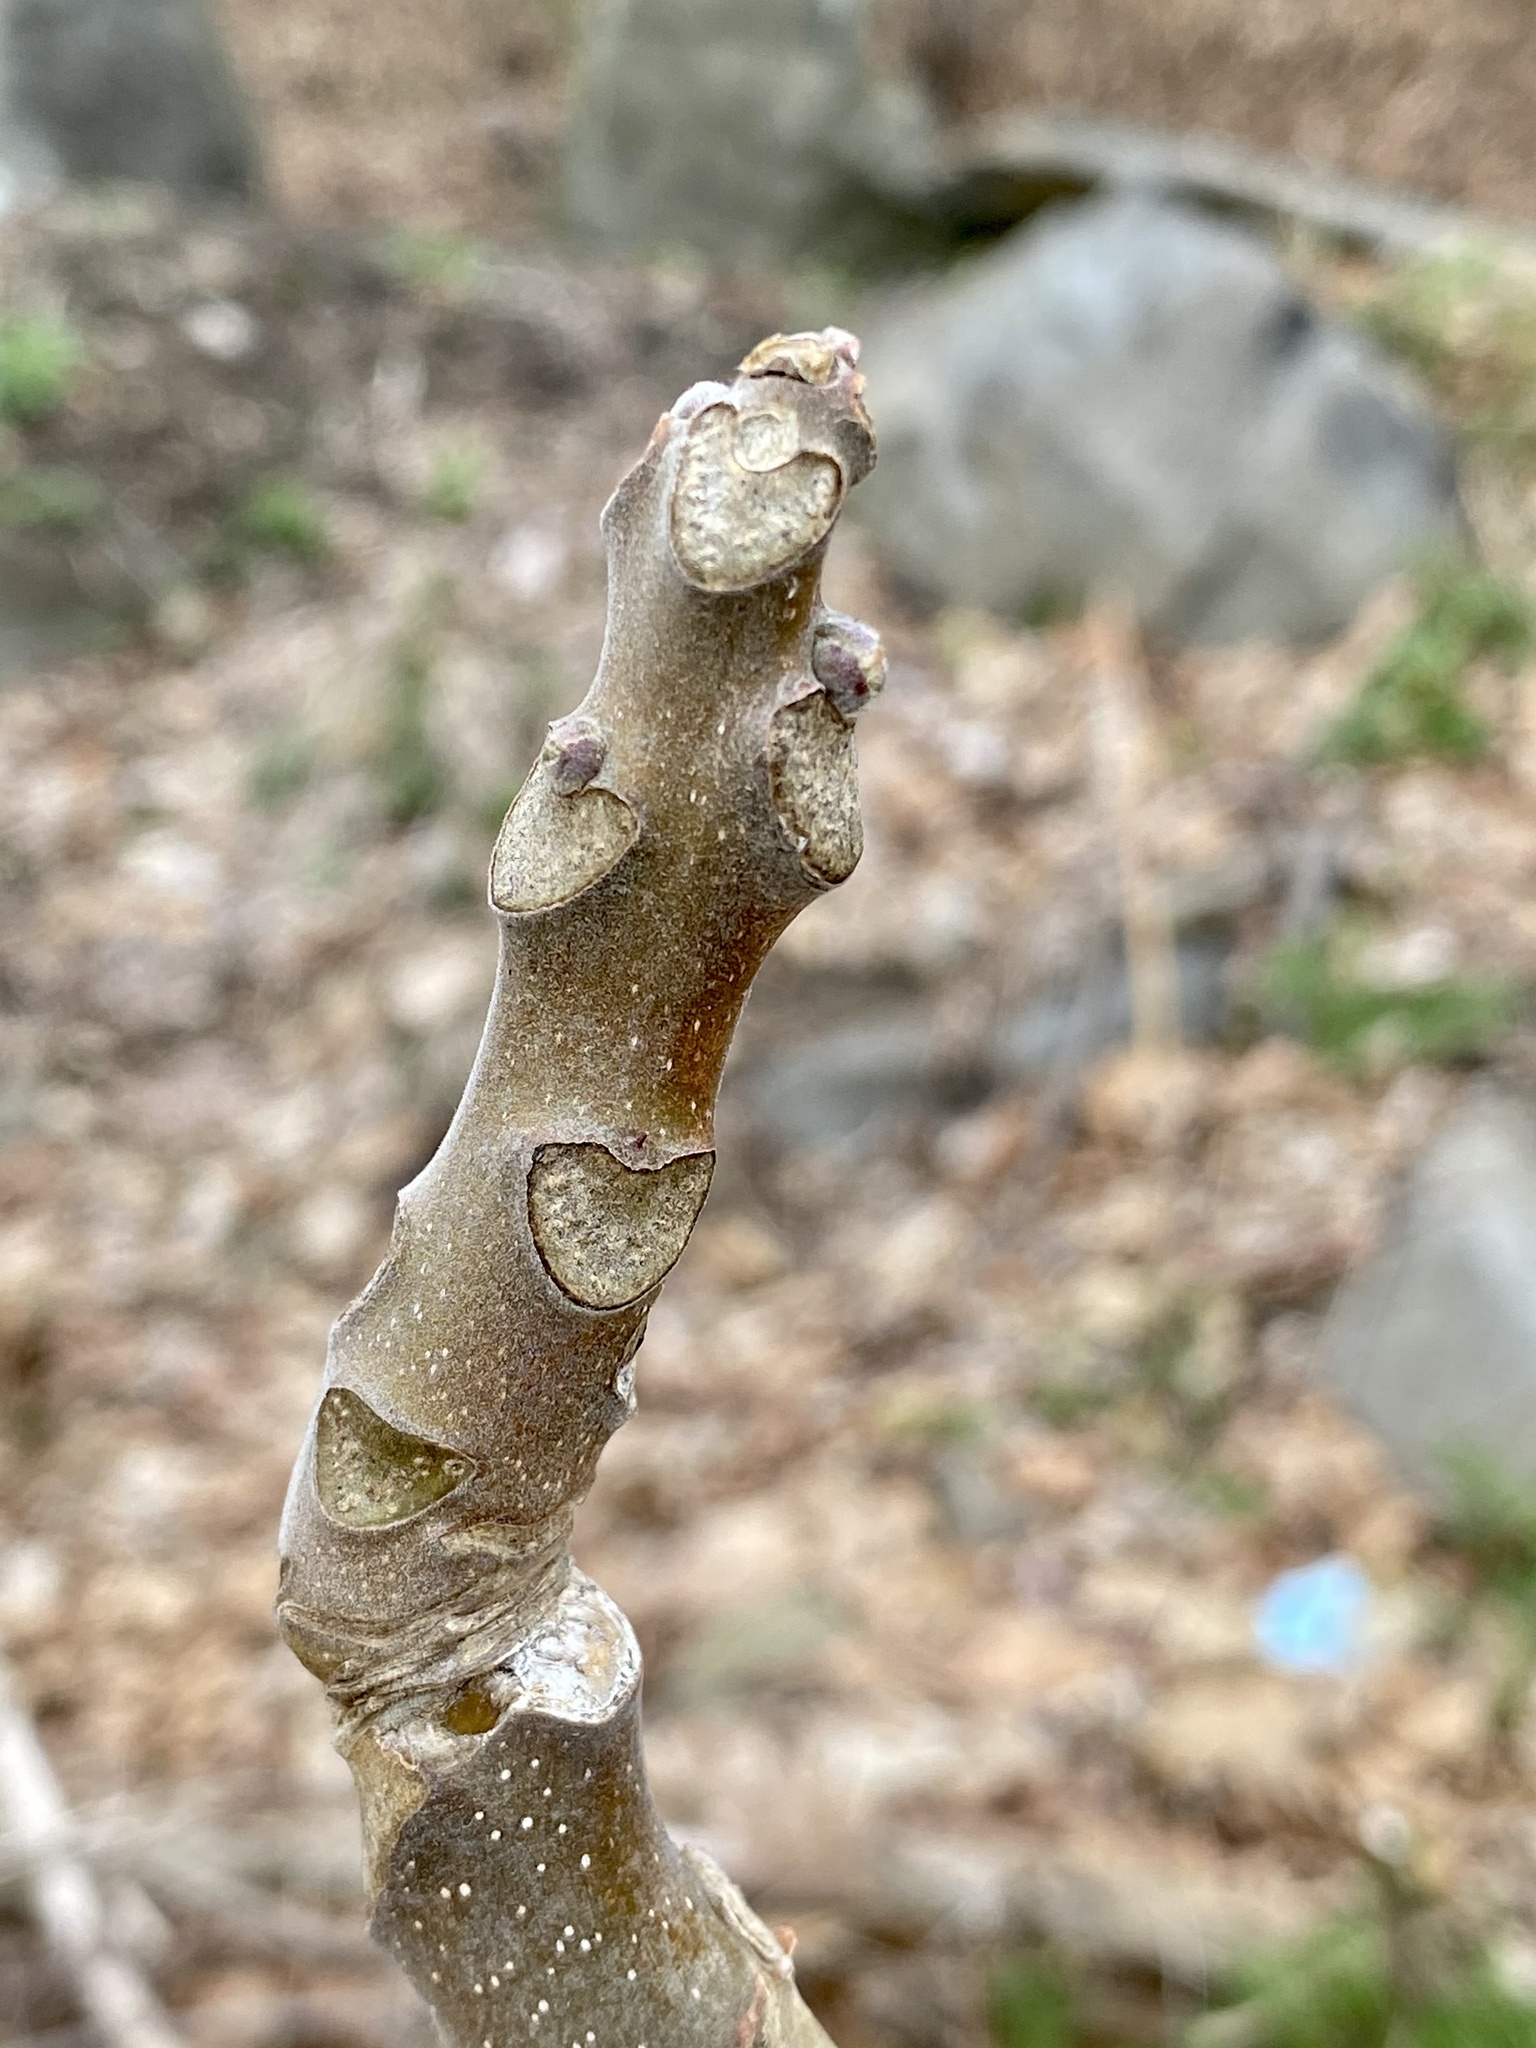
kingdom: Plantae
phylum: Tracheophyta
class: Magnoliopsida
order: Sapindales
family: Simaroubaceae
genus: Ailanthus
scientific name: Ailanthus altissima
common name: Tree-of-heaven
